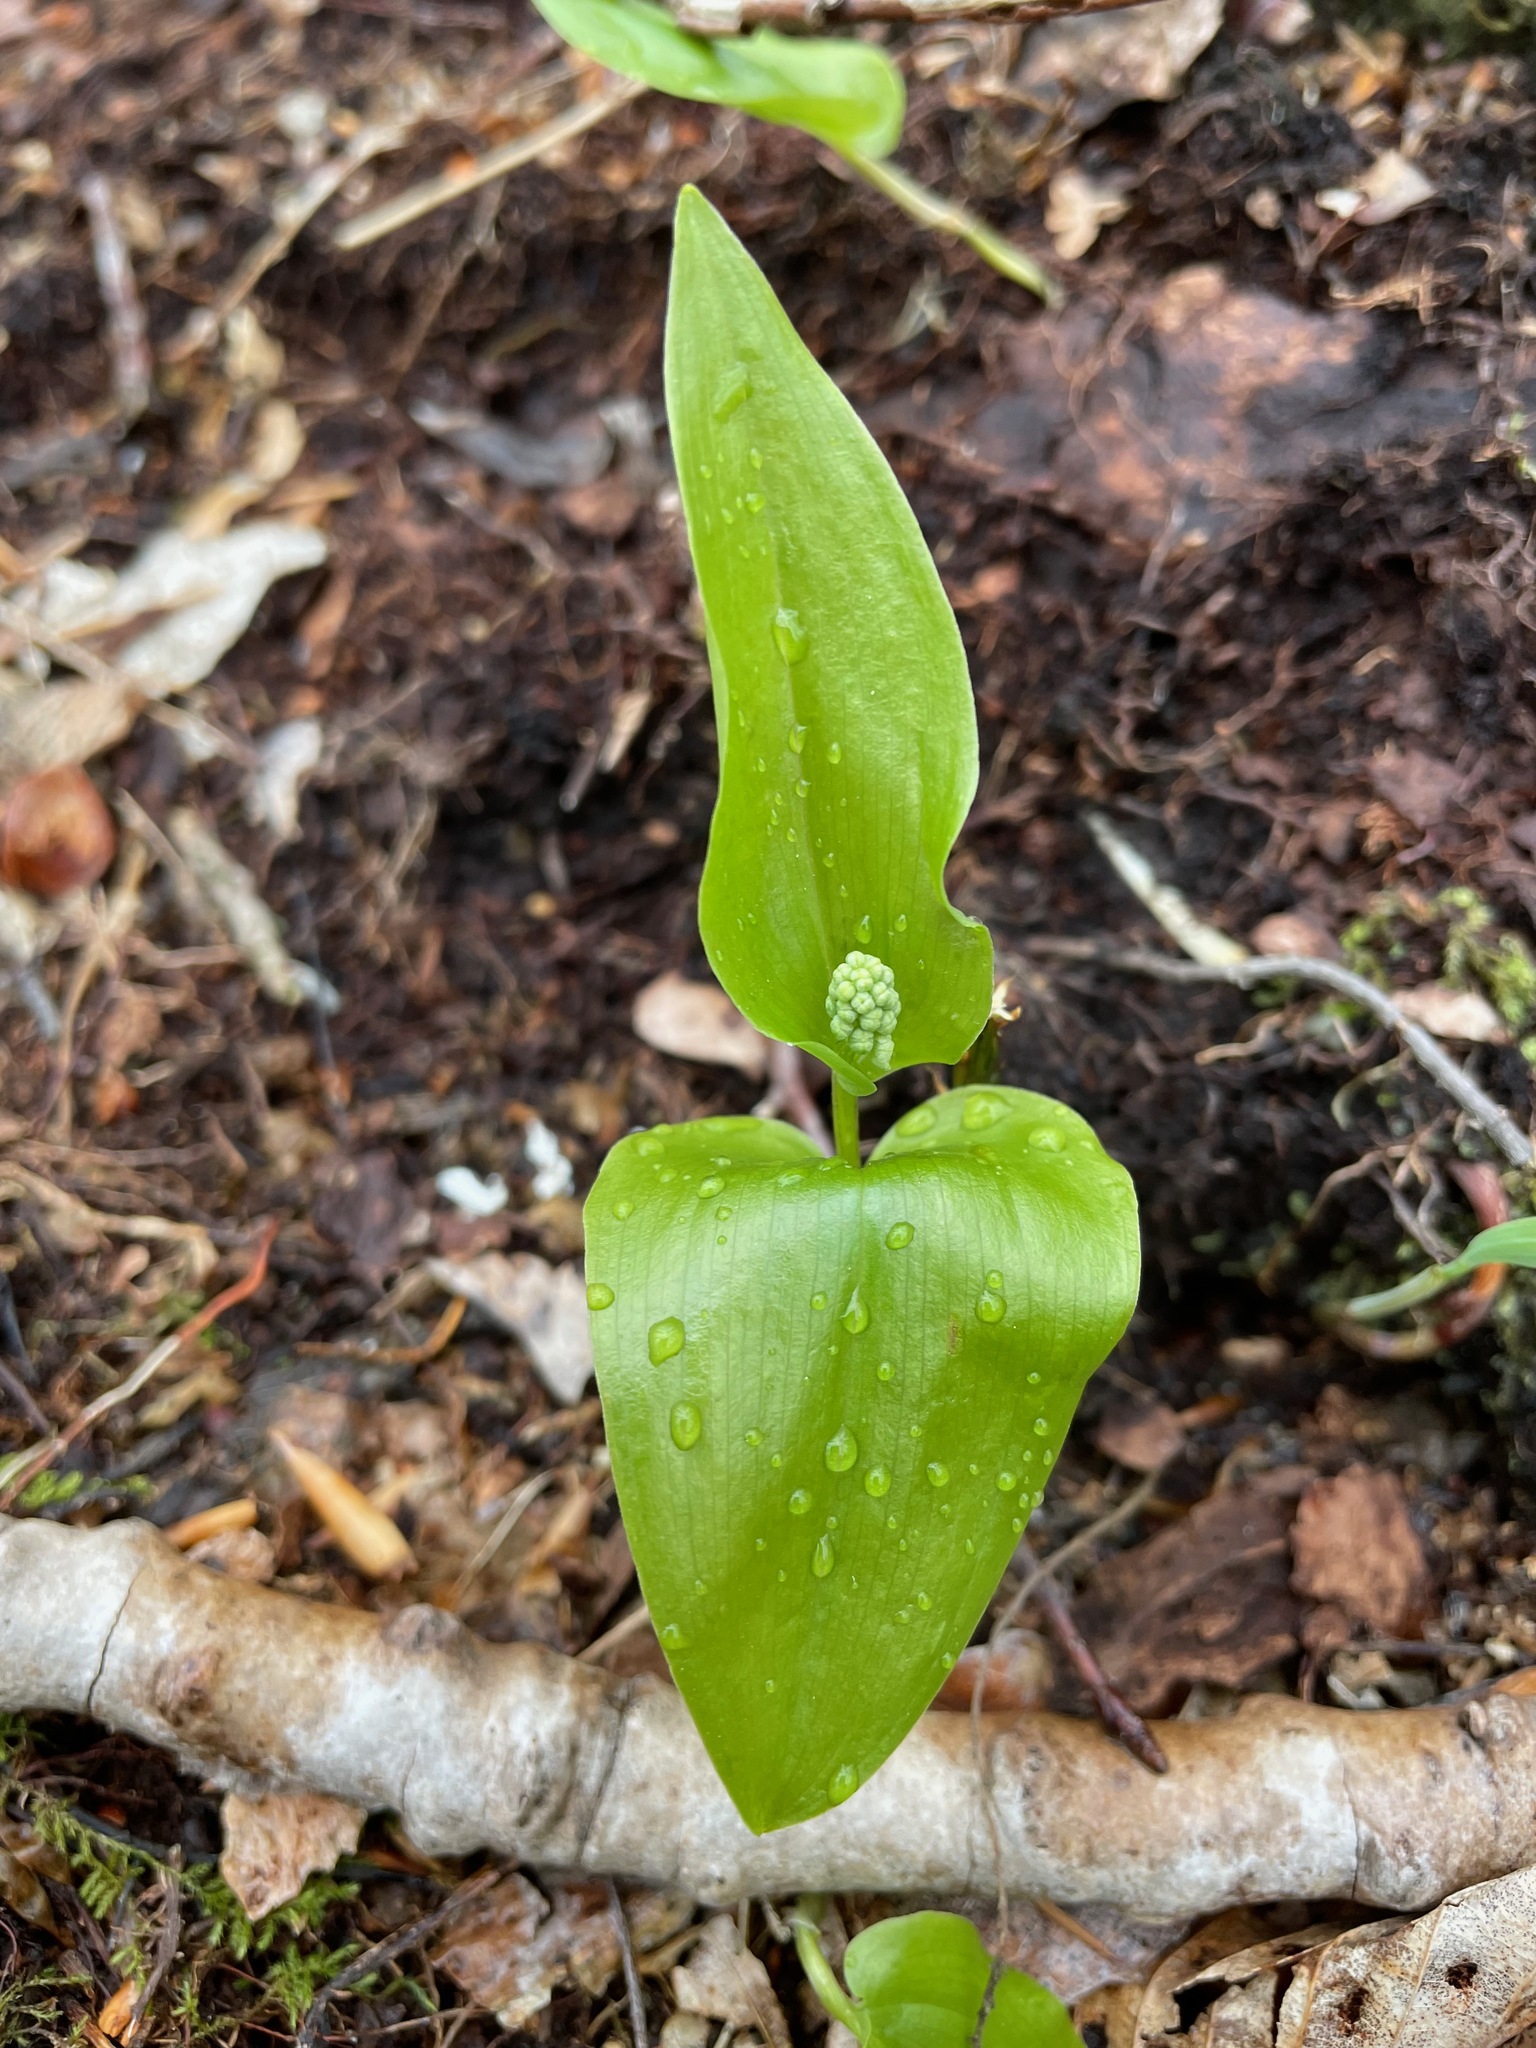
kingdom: Plantae
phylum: Tracheophyta
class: Liliopsida
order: Asparagales
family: Asparagaceae
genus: Maianthemum
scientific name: Maianthemum canadense
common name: False lily-of-the-valley
